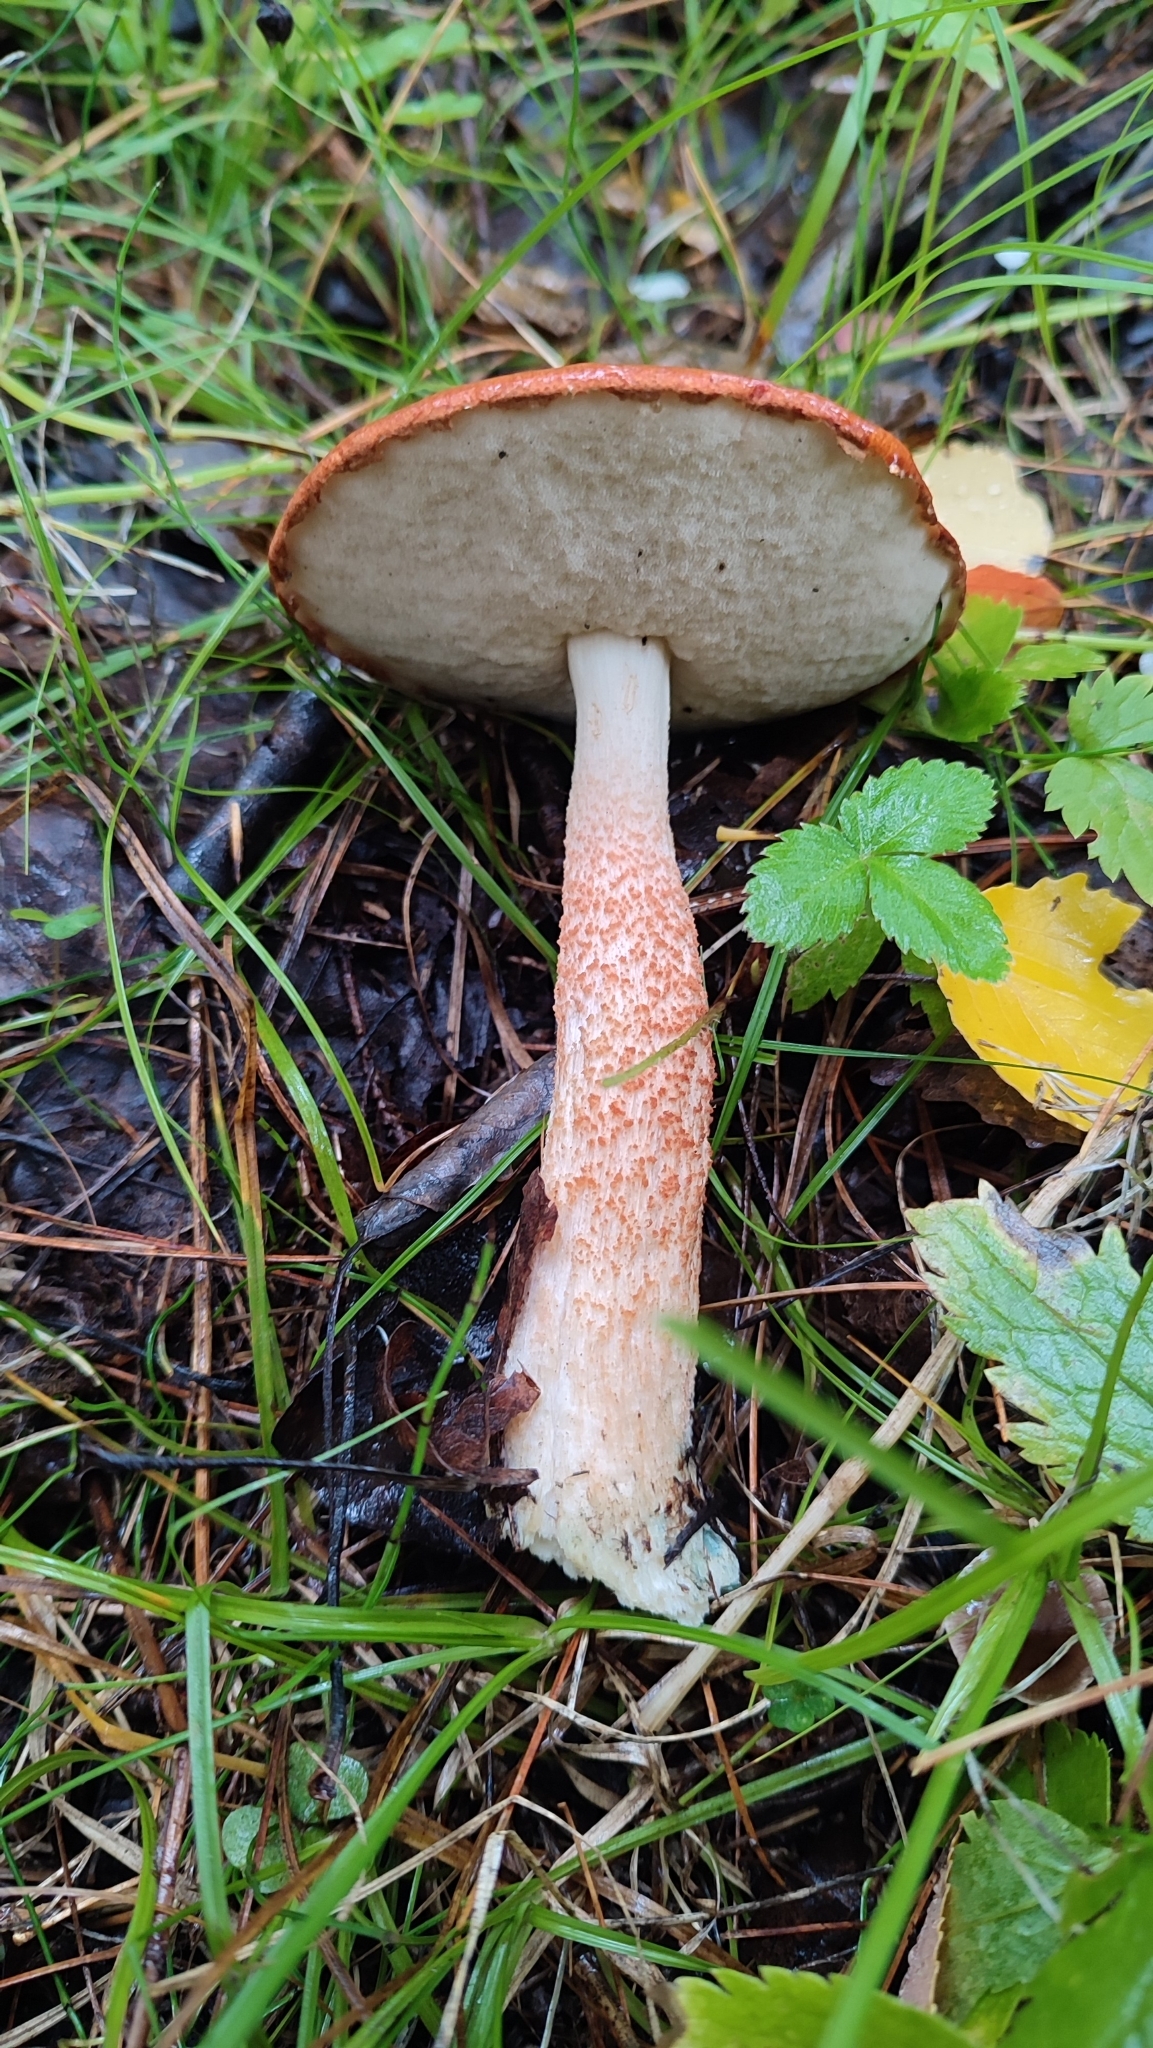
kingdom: Fungi
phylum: Basidiomycota
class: Agaricomycetes
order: Boletales
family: Boletaceae
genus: Leccinum
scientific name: Leccinum aurantiacum
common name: Orange bolete
